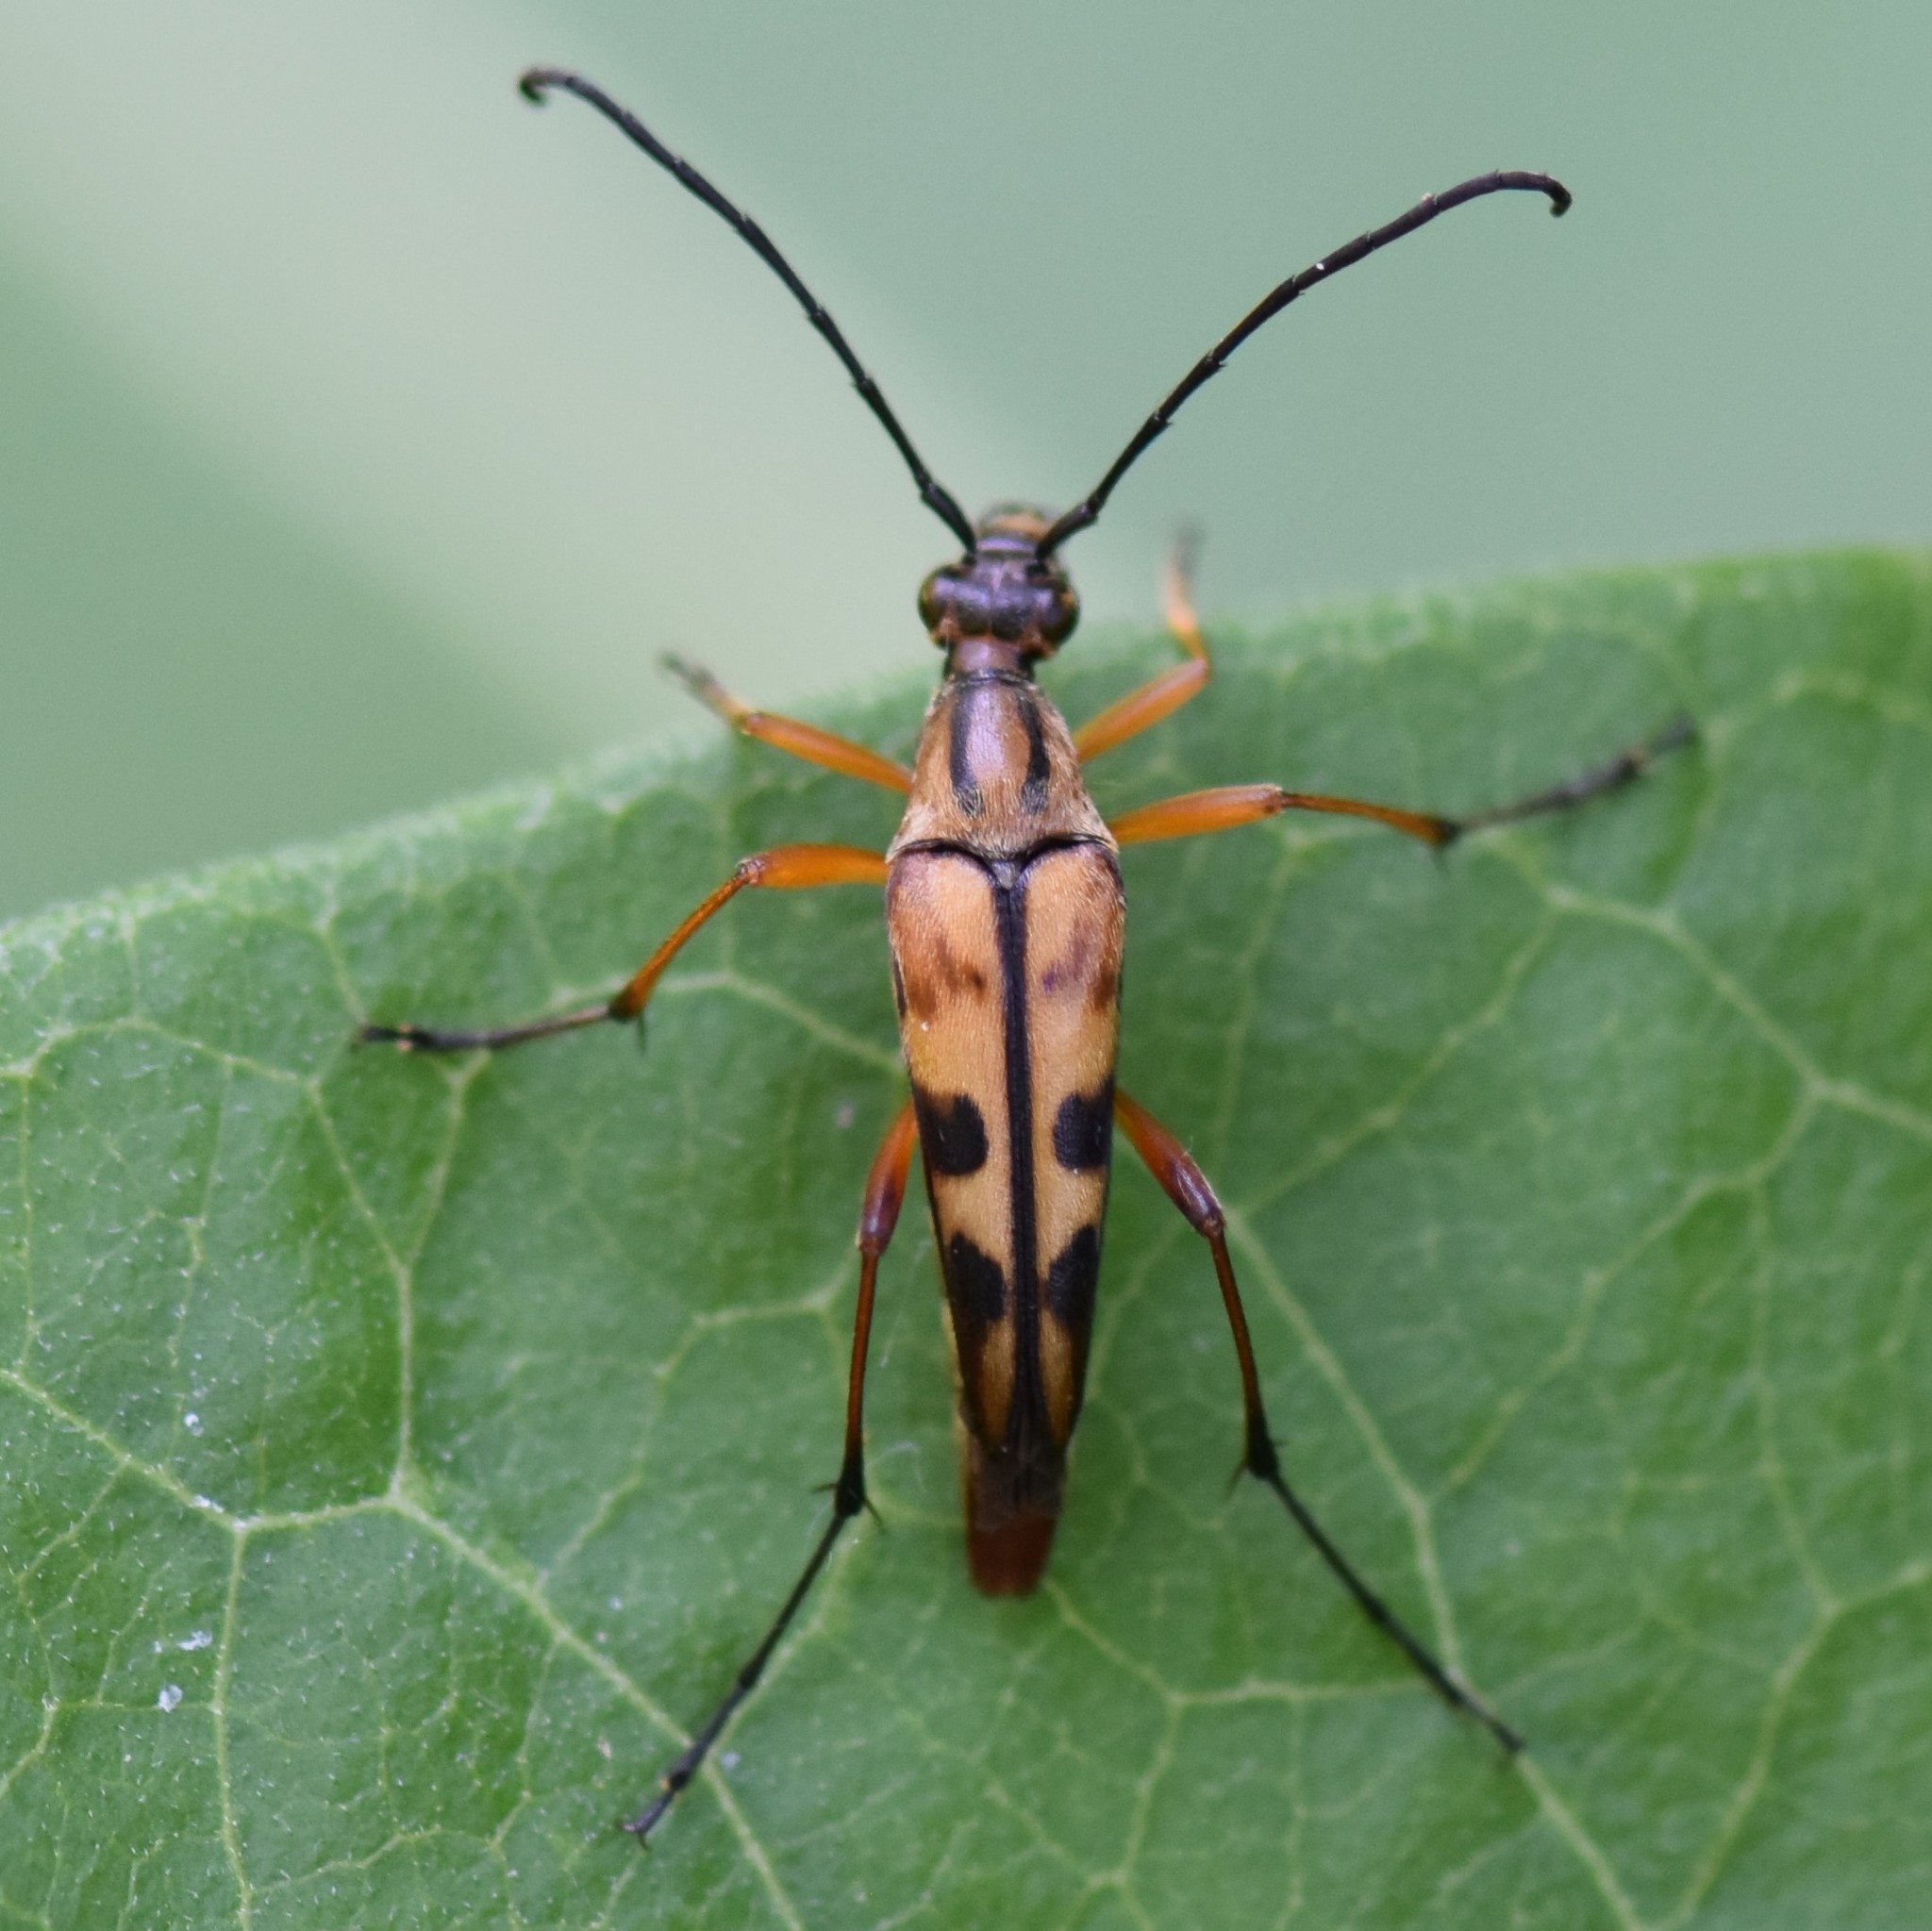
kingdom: Animalia
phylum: Arthropoda
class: Insecta
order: Coleoptera
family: Cerambycidae
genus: Strangalia
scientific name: Strangalia famelica
